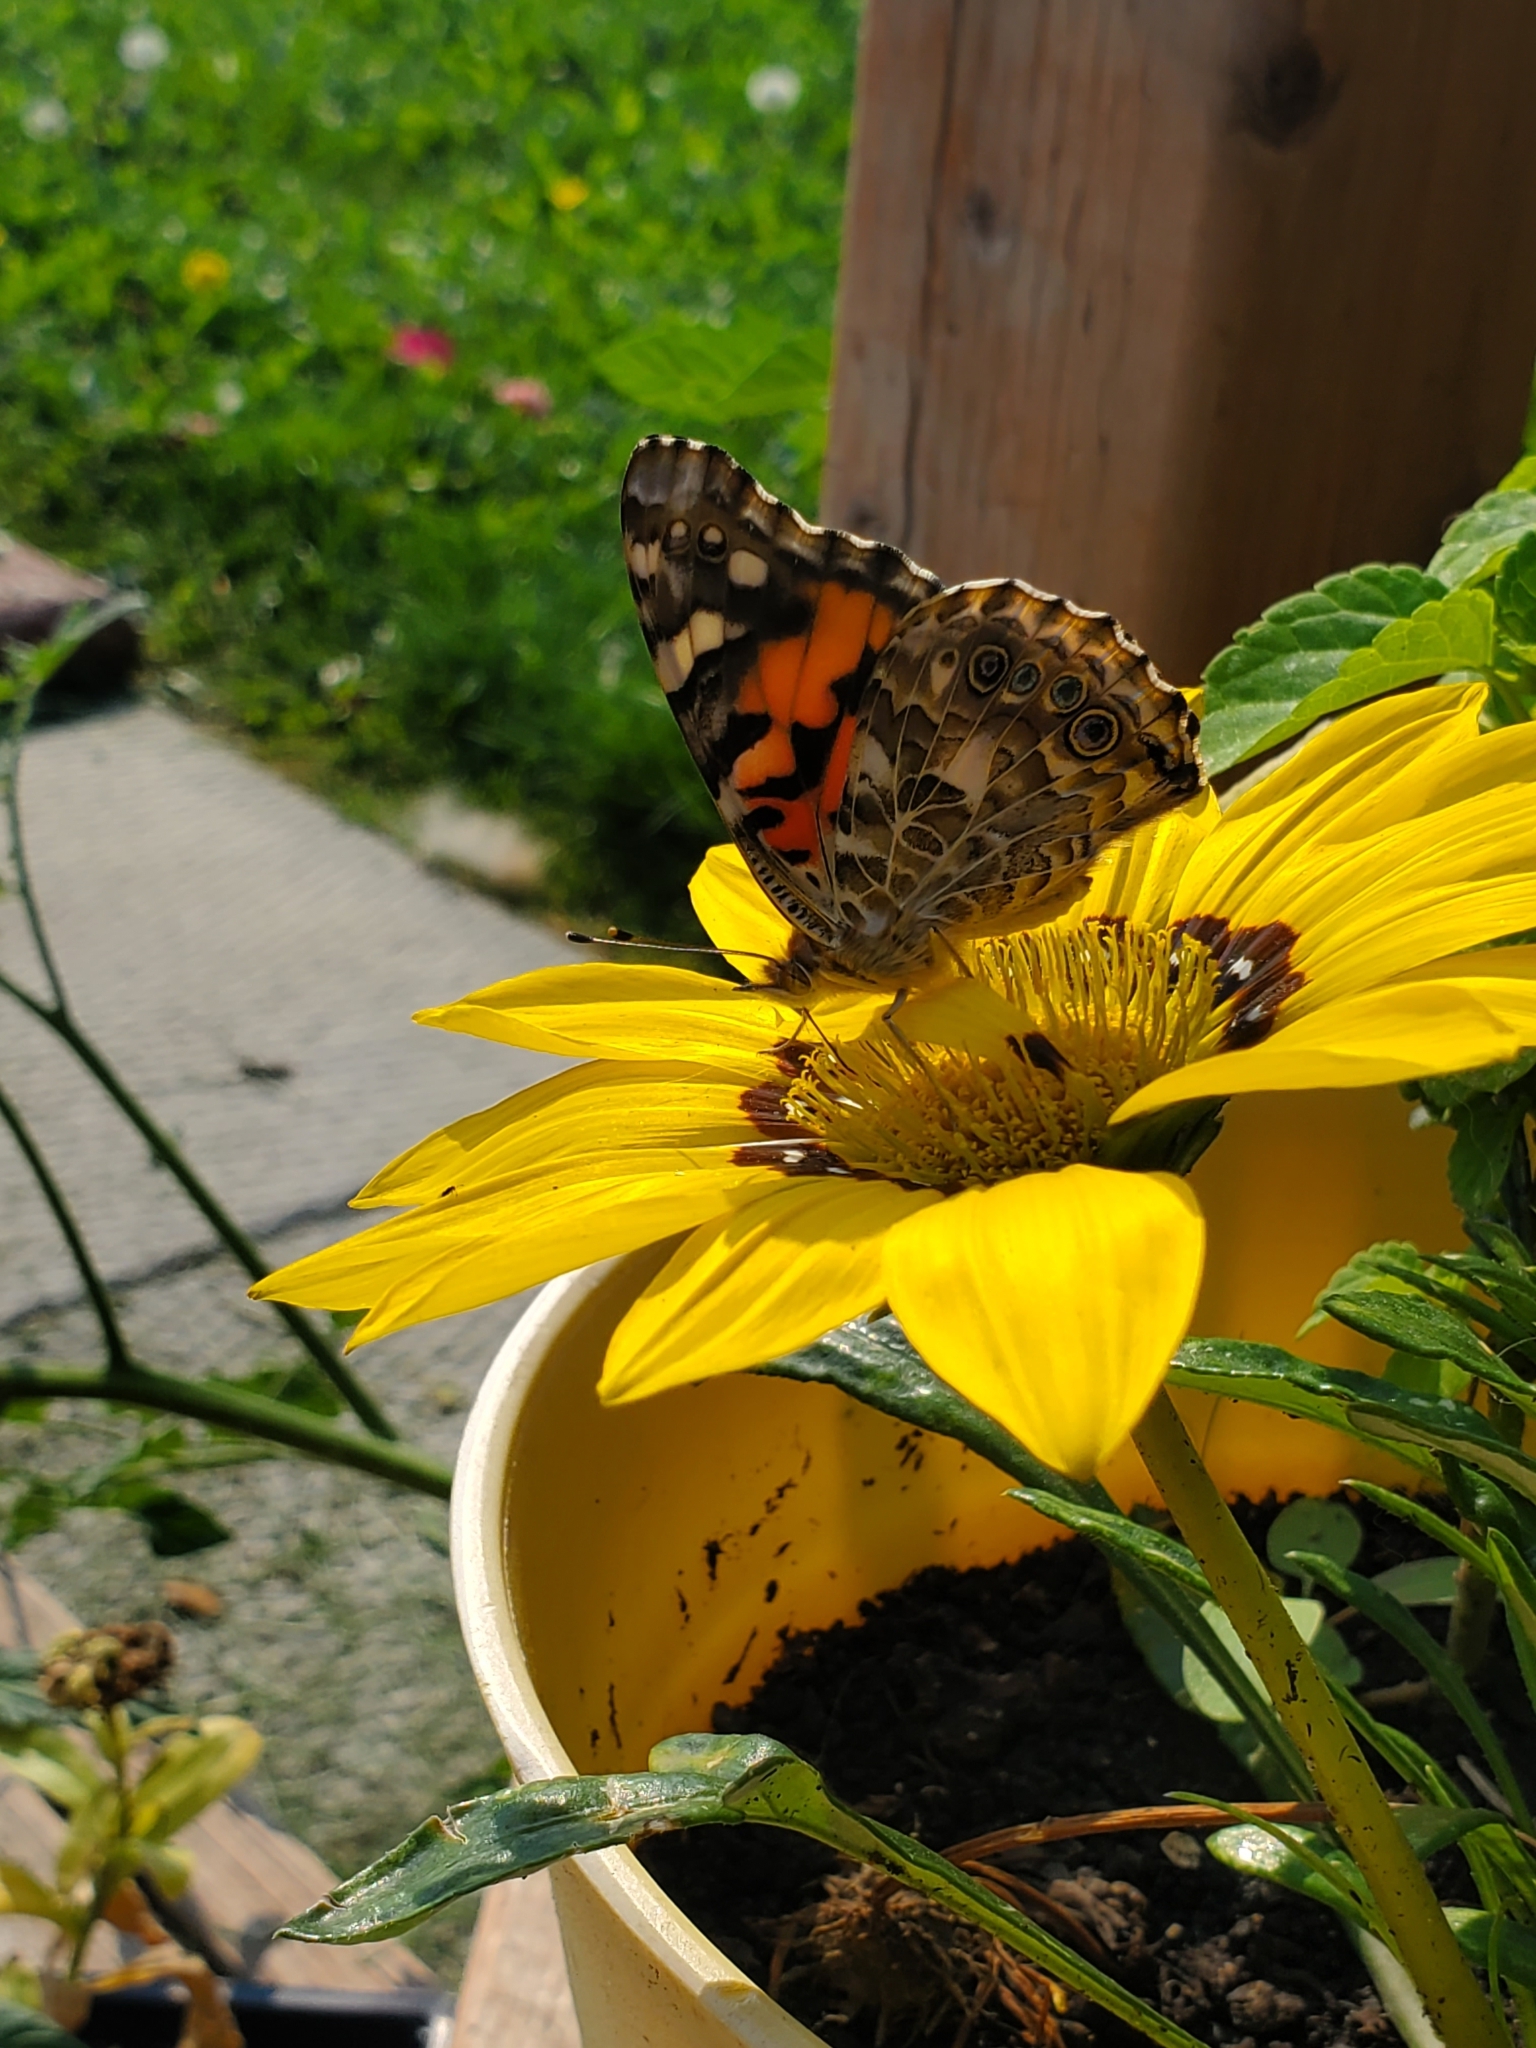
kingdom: Animalia
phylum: Arthropoda
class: Insecta
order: Lepidoptera
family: Nymphalidae
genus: Vanessa
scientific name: Vanessa cardui
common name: Painted lady
